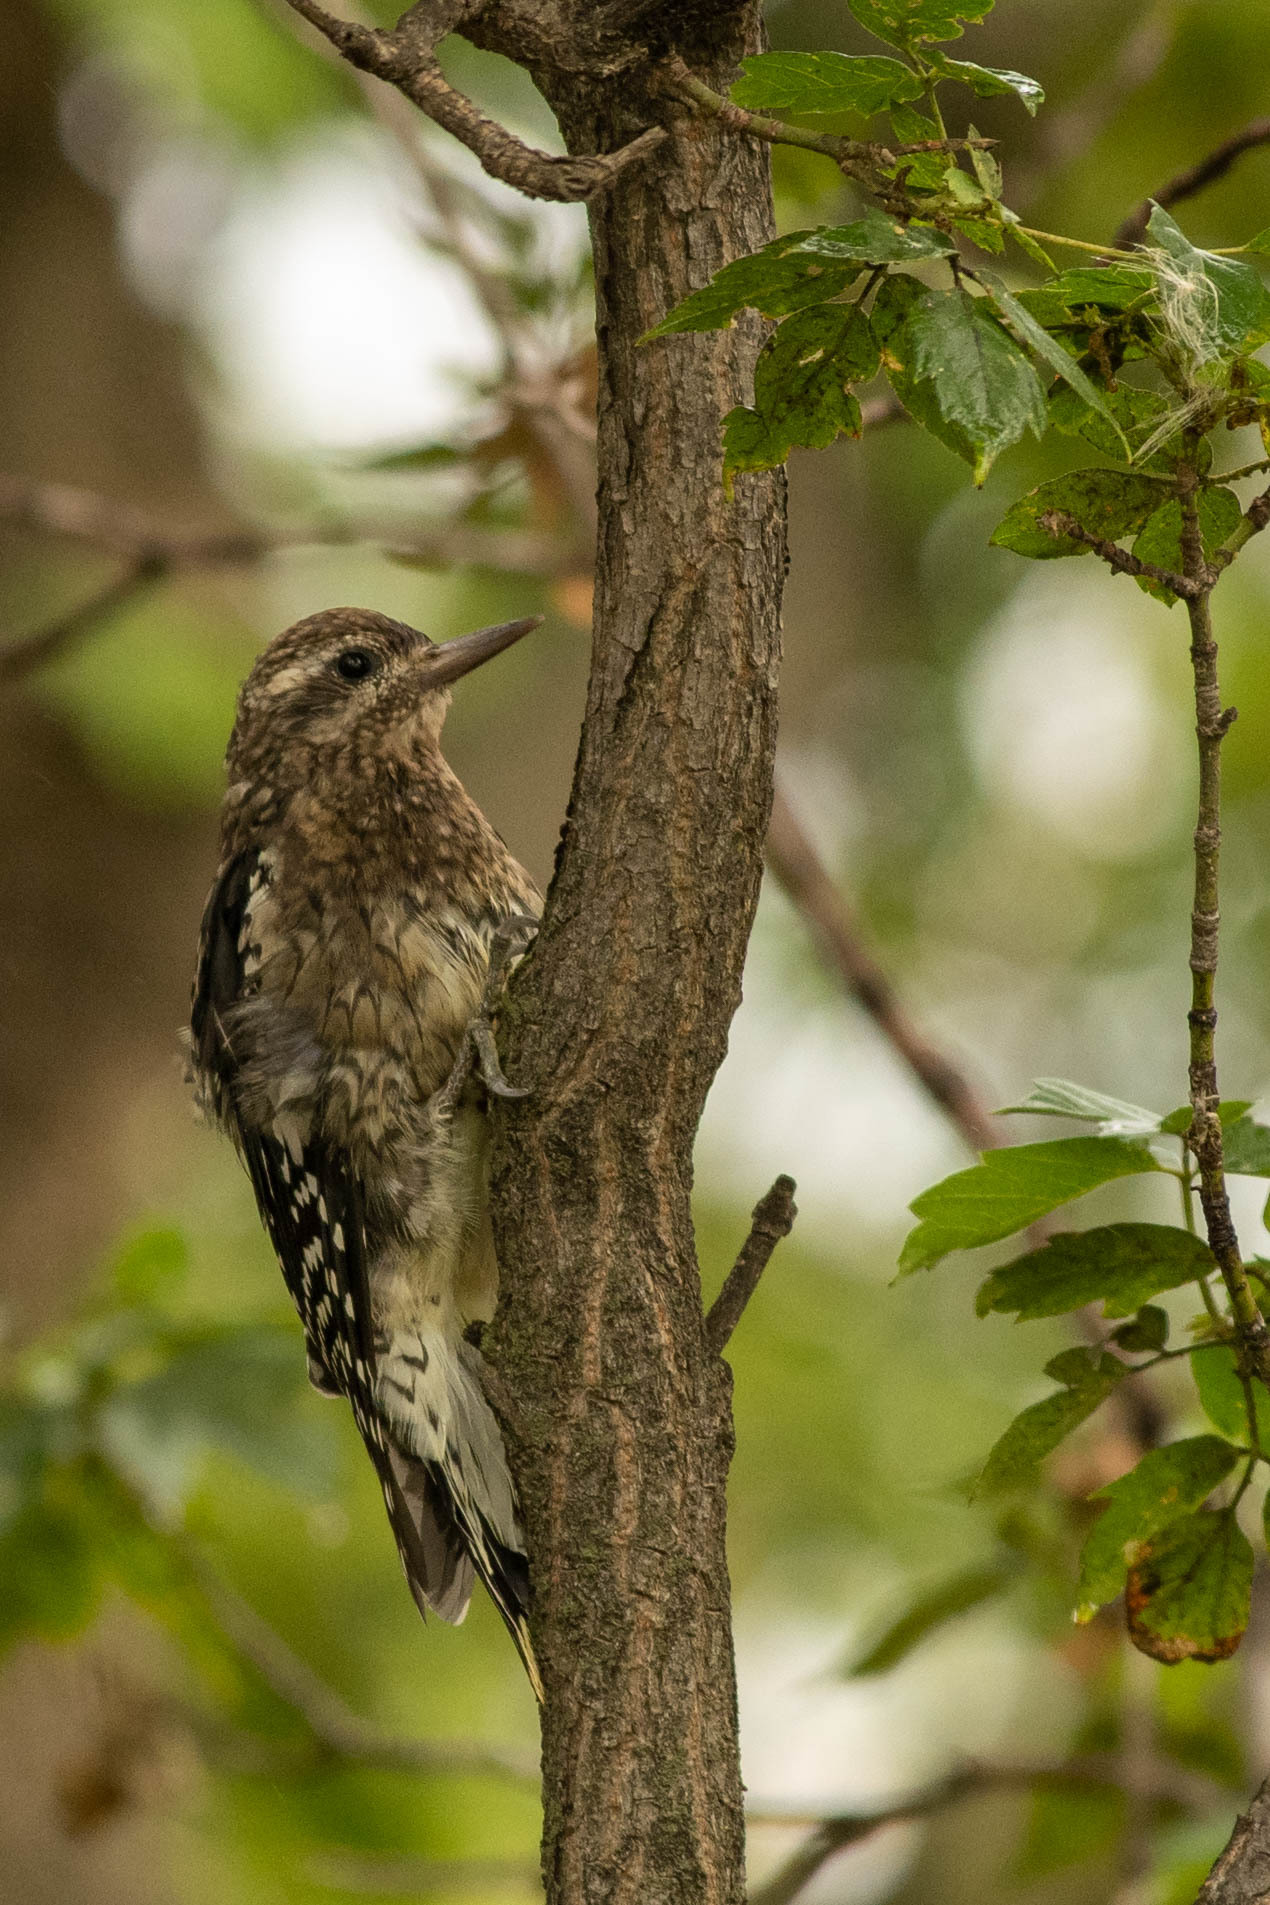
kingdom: Animalia
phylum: Chordata
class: Aves
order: Piciformes
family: Picidae
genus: Sphyrapicus
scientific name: Sphyrapicus varius
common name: Yellow-bellied sapsucker
